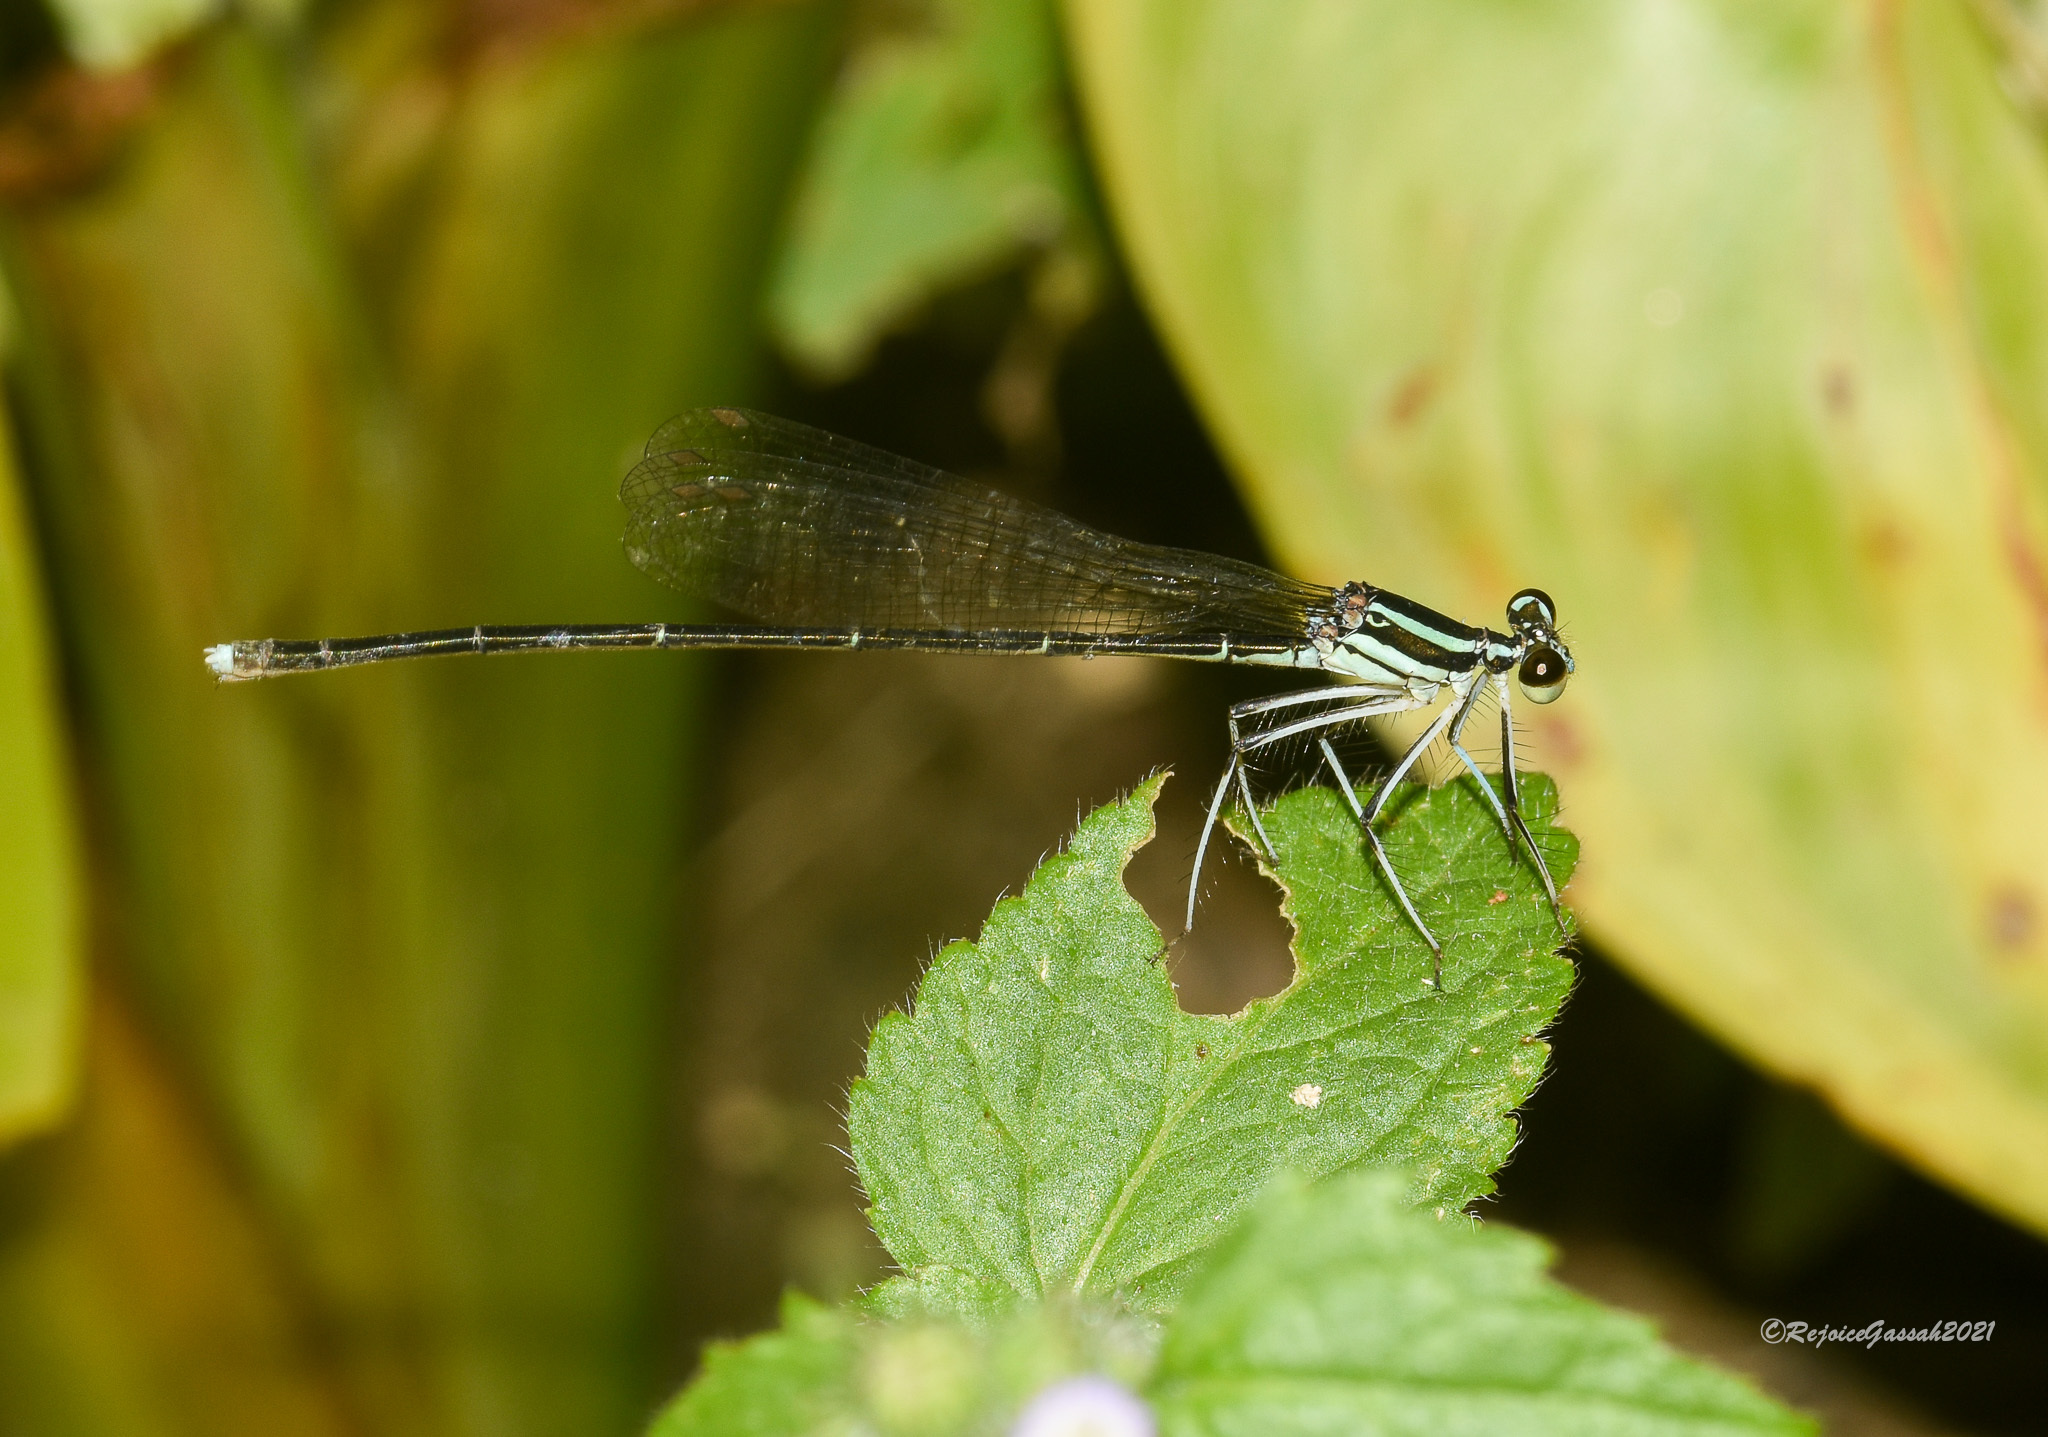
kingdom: Animalia
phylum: Arthropoda
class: Insecta
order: Odonata
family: Platycnemididae
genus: Pseudocopera
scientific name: Pseudocopera ciliata
